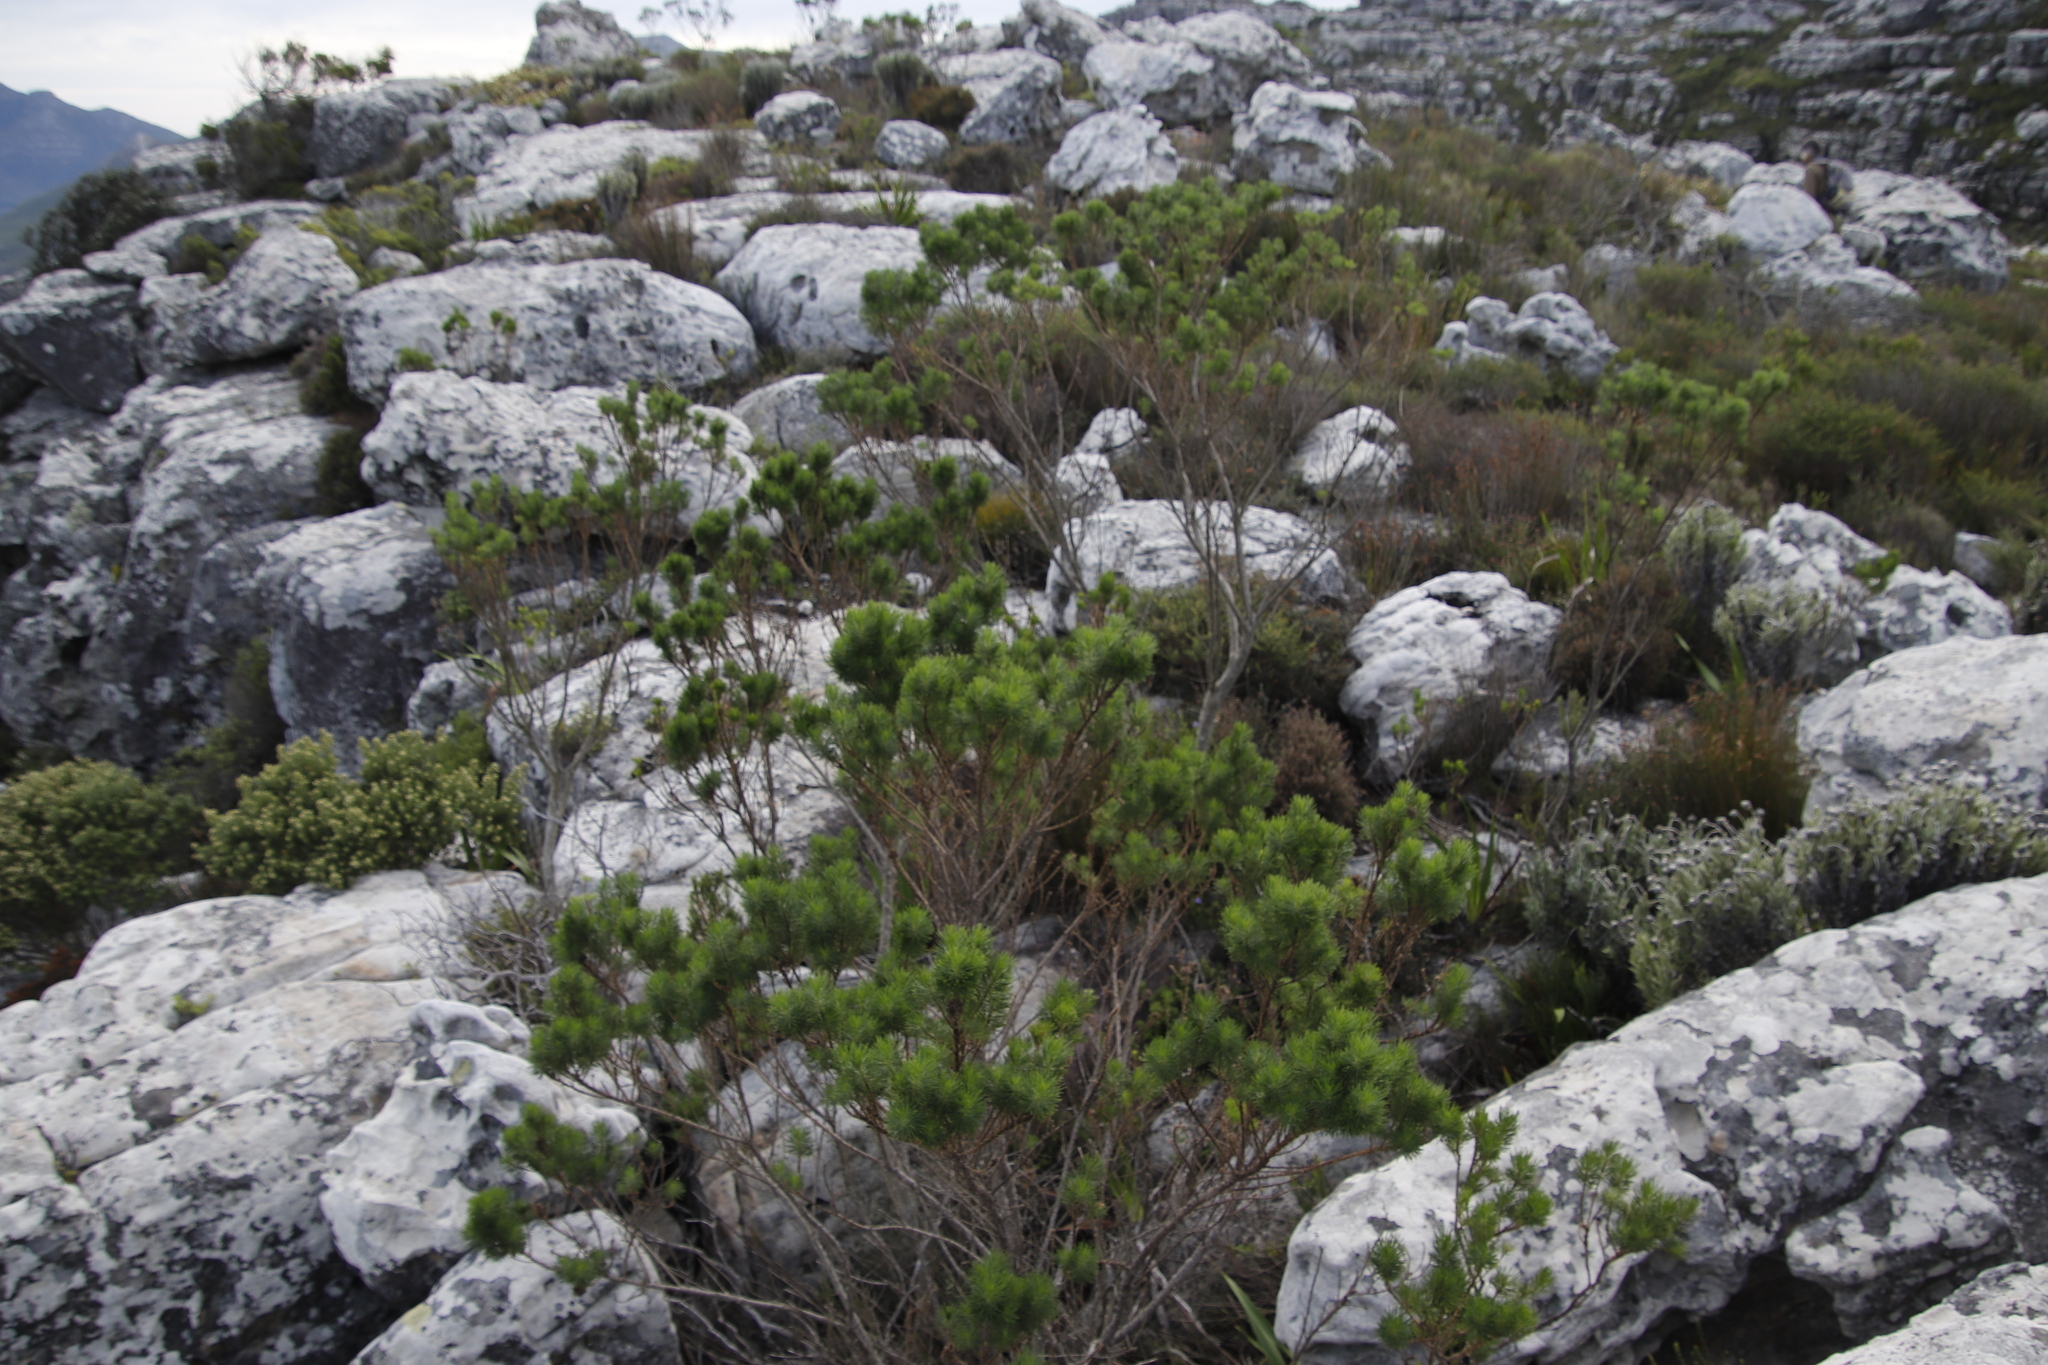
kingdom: Plantae
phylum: Tracheophyta
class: Magnoliopsida
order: Fabales
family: Fabaceae
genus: Psoralea
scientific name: Psoralea pinnata
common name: African scurfpea
